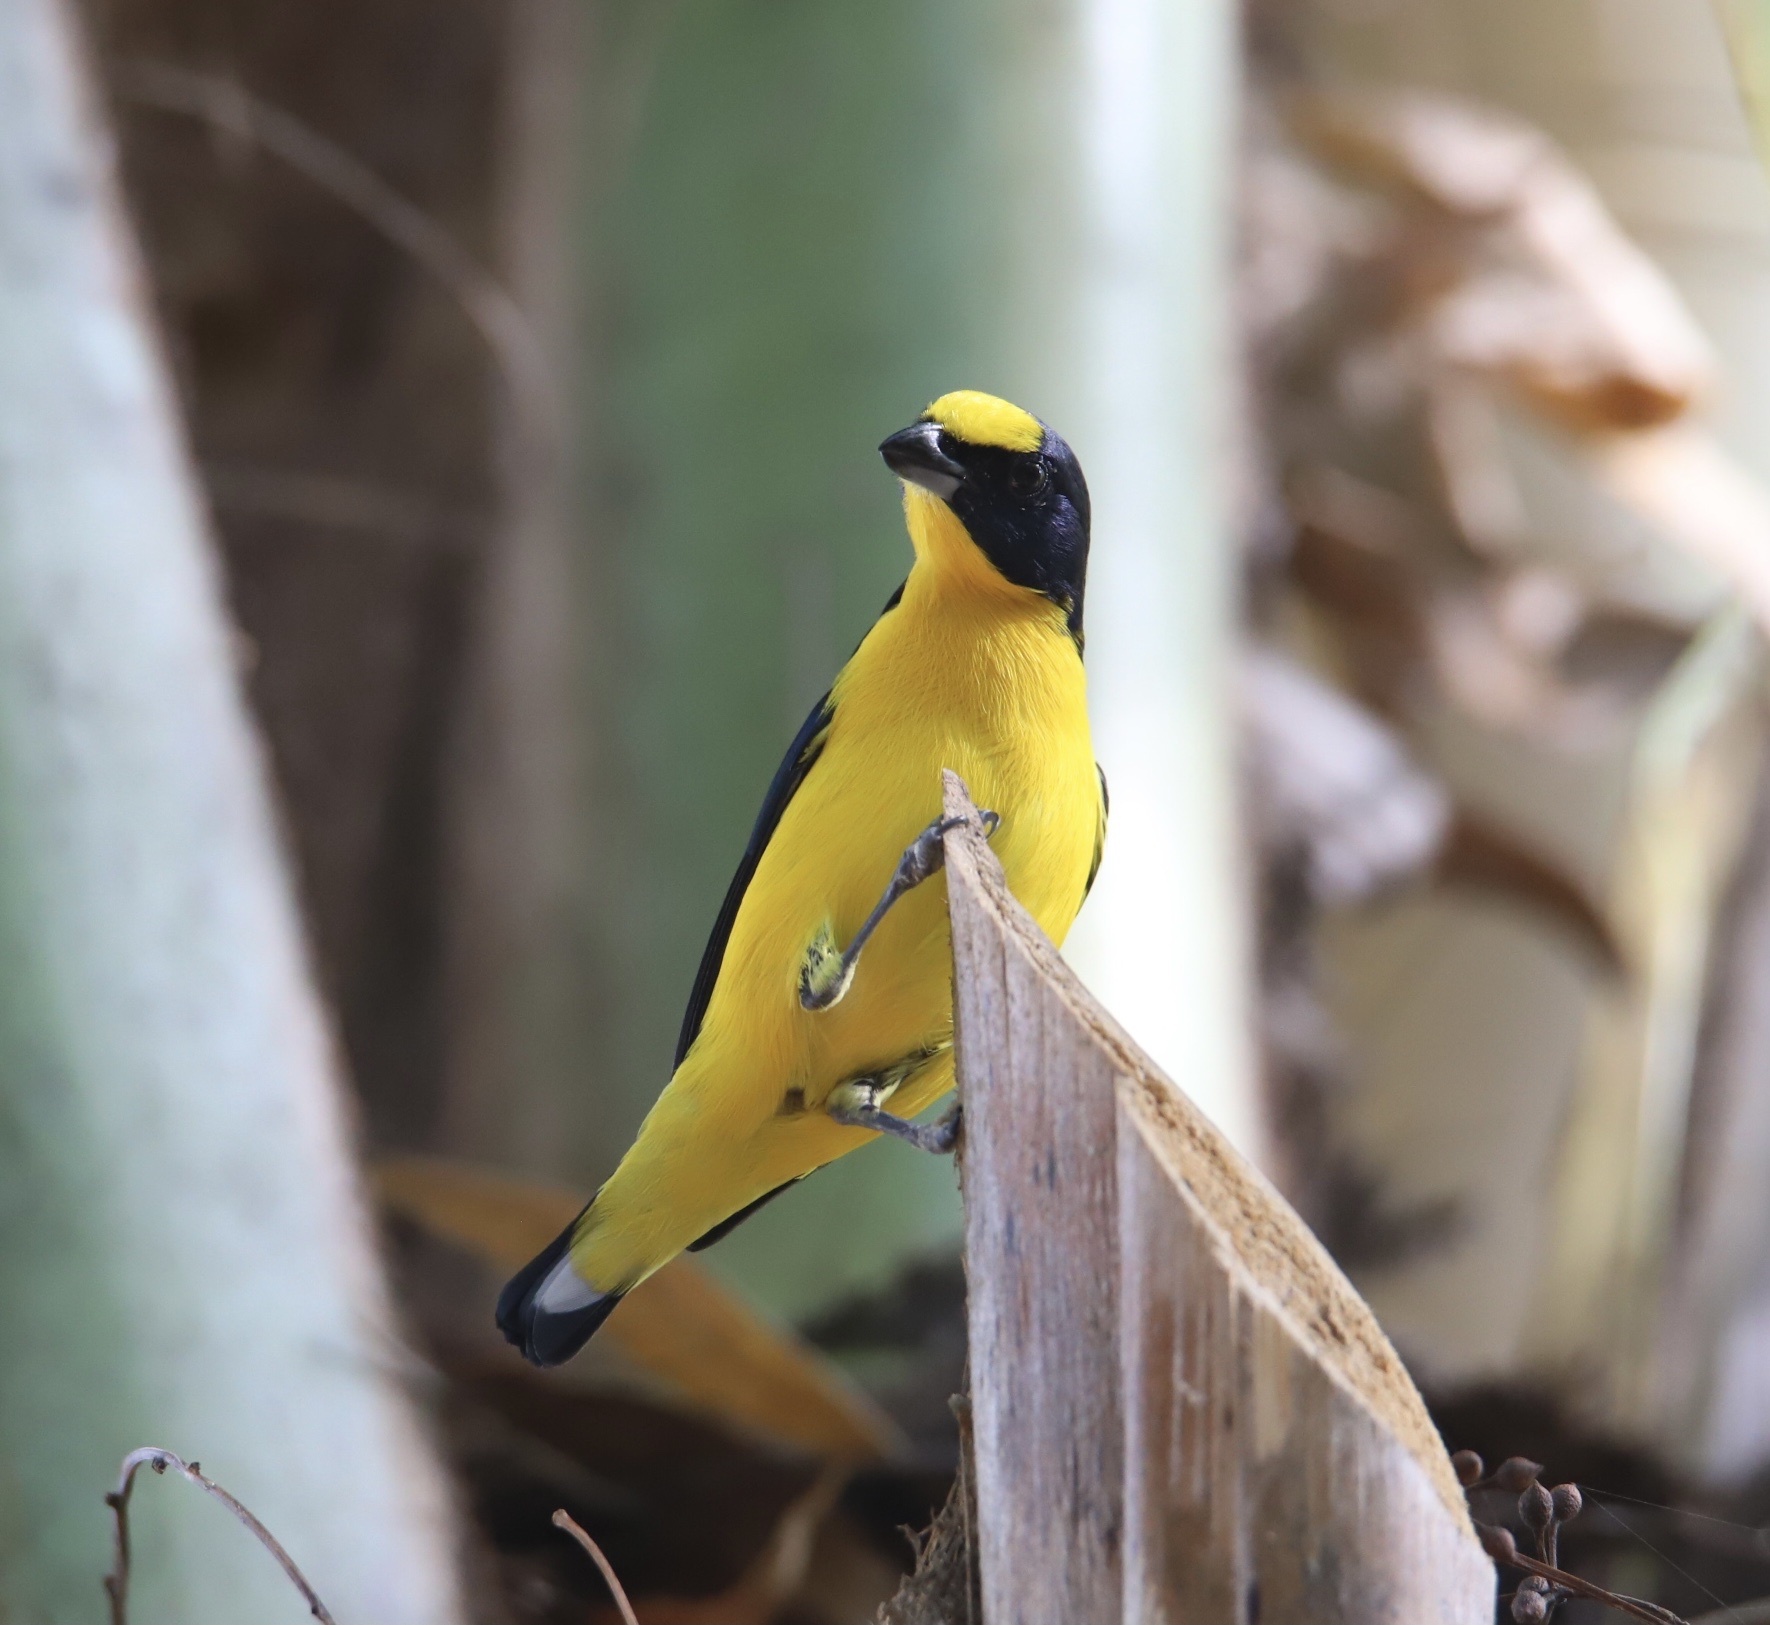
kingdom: Animalia
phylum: Chordata
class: Aves
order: Passeriformes
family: Fringillidae
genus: Euphonia
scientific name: Euphonia laniirostris
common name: Thick-billed euphonia
